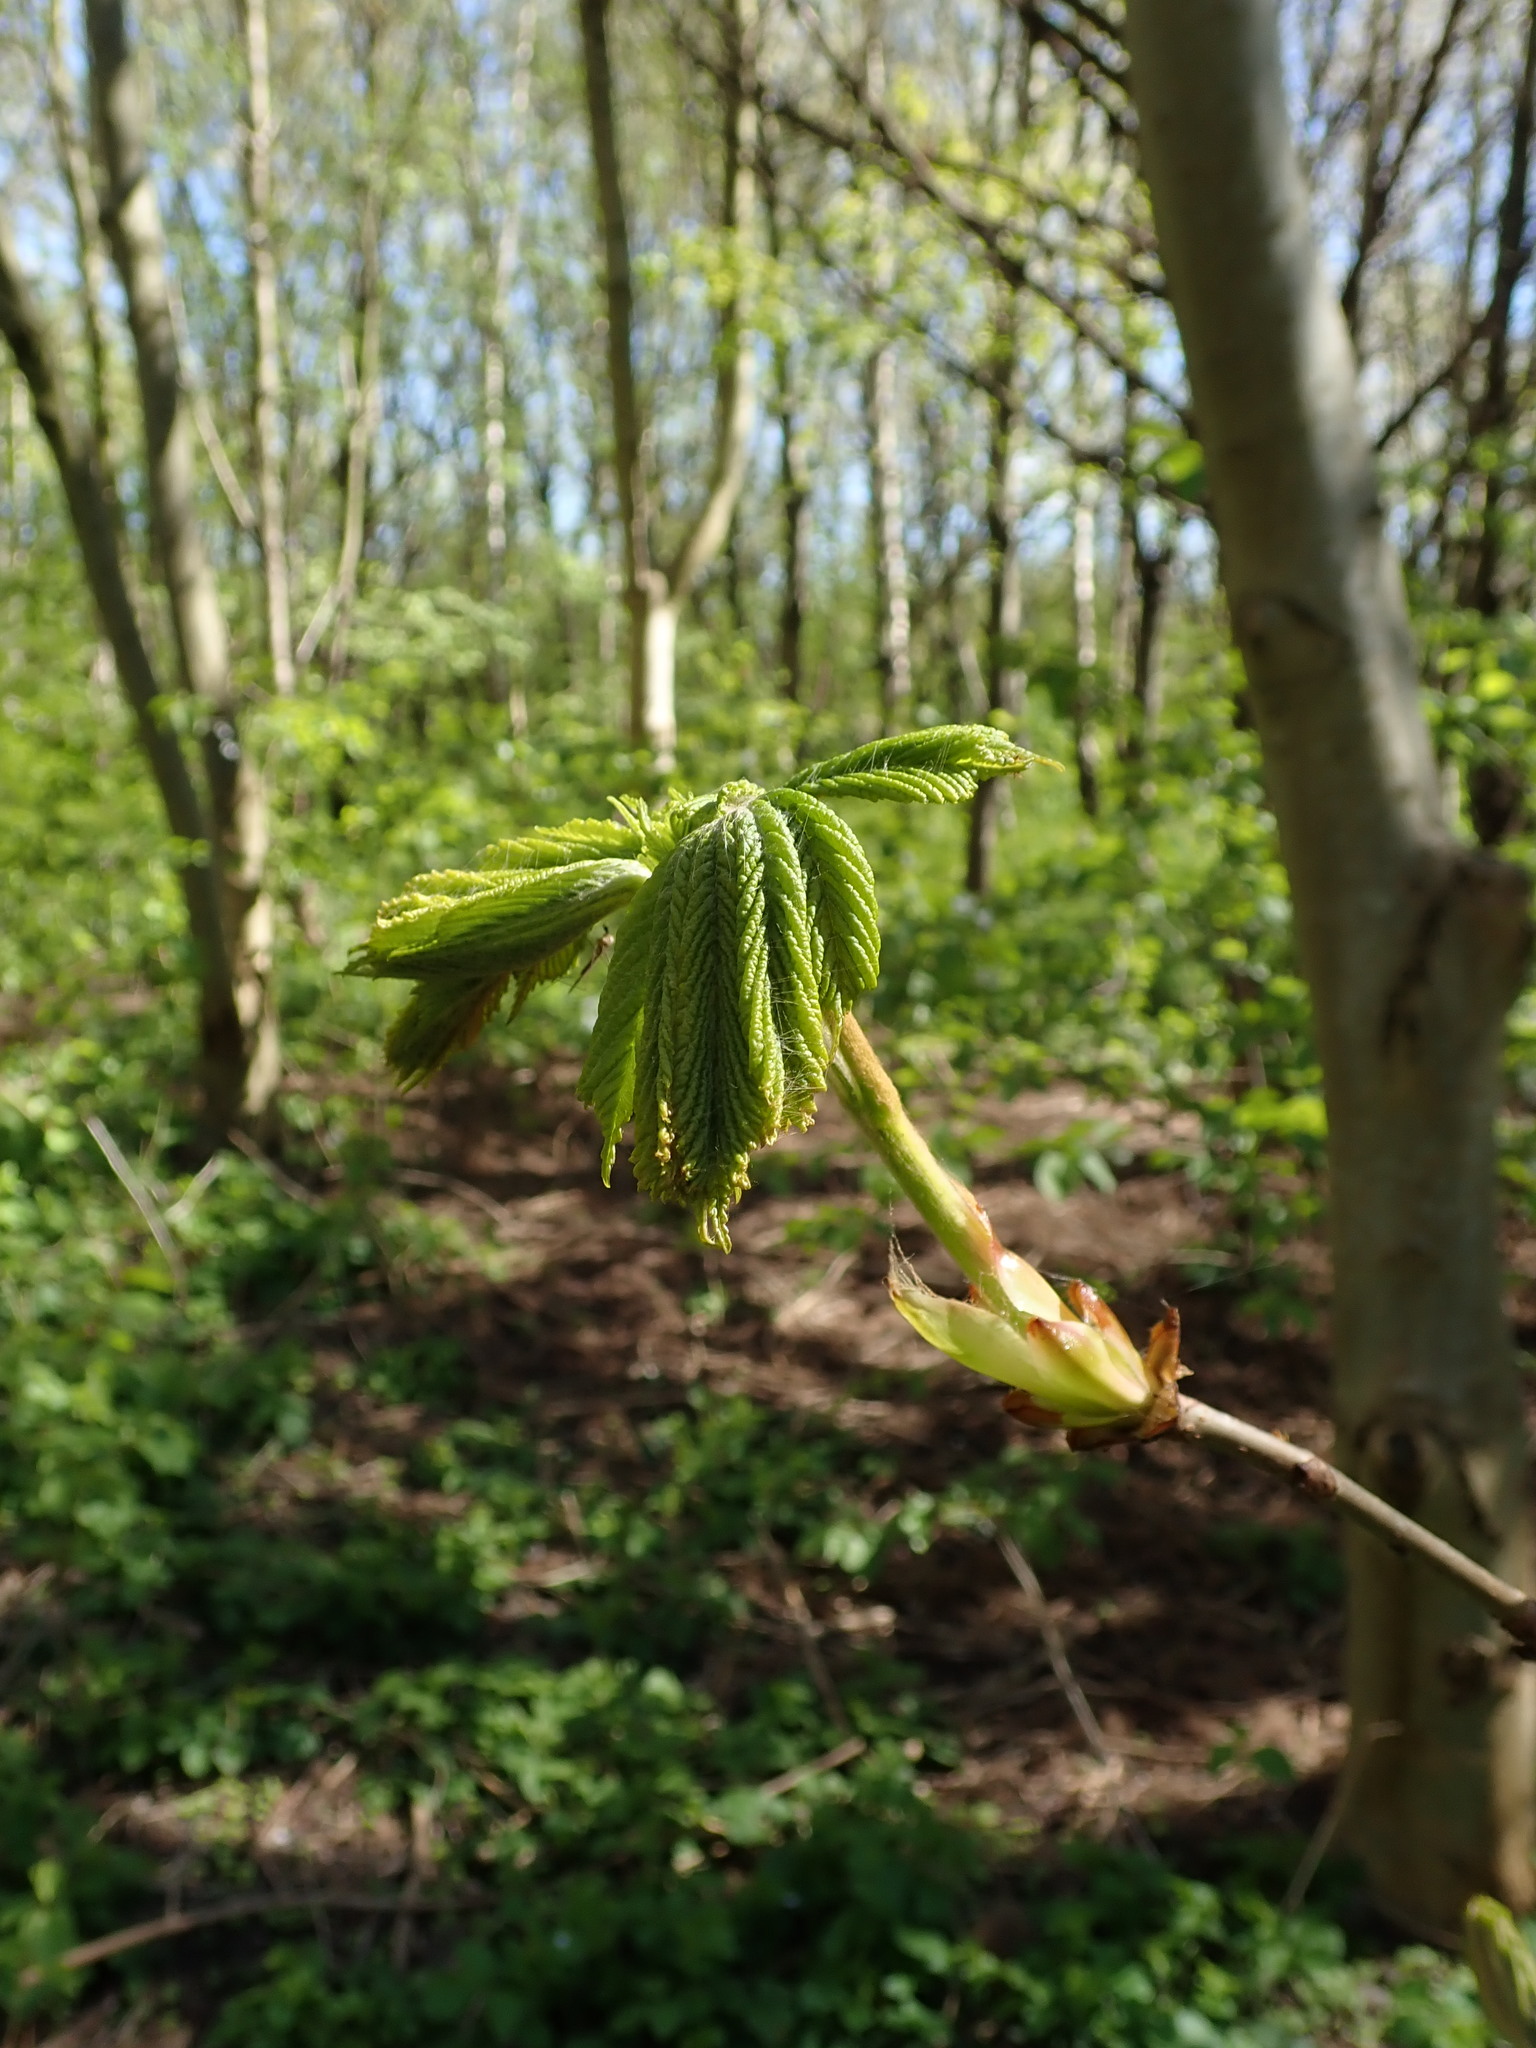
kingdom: Plantae
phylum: Tracheophyta
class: Magnoliopsida
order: Sapindales
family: Sapindaceae
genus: Aesculus
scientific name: Aesculus hippocastanum
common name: Horse-chestnut
